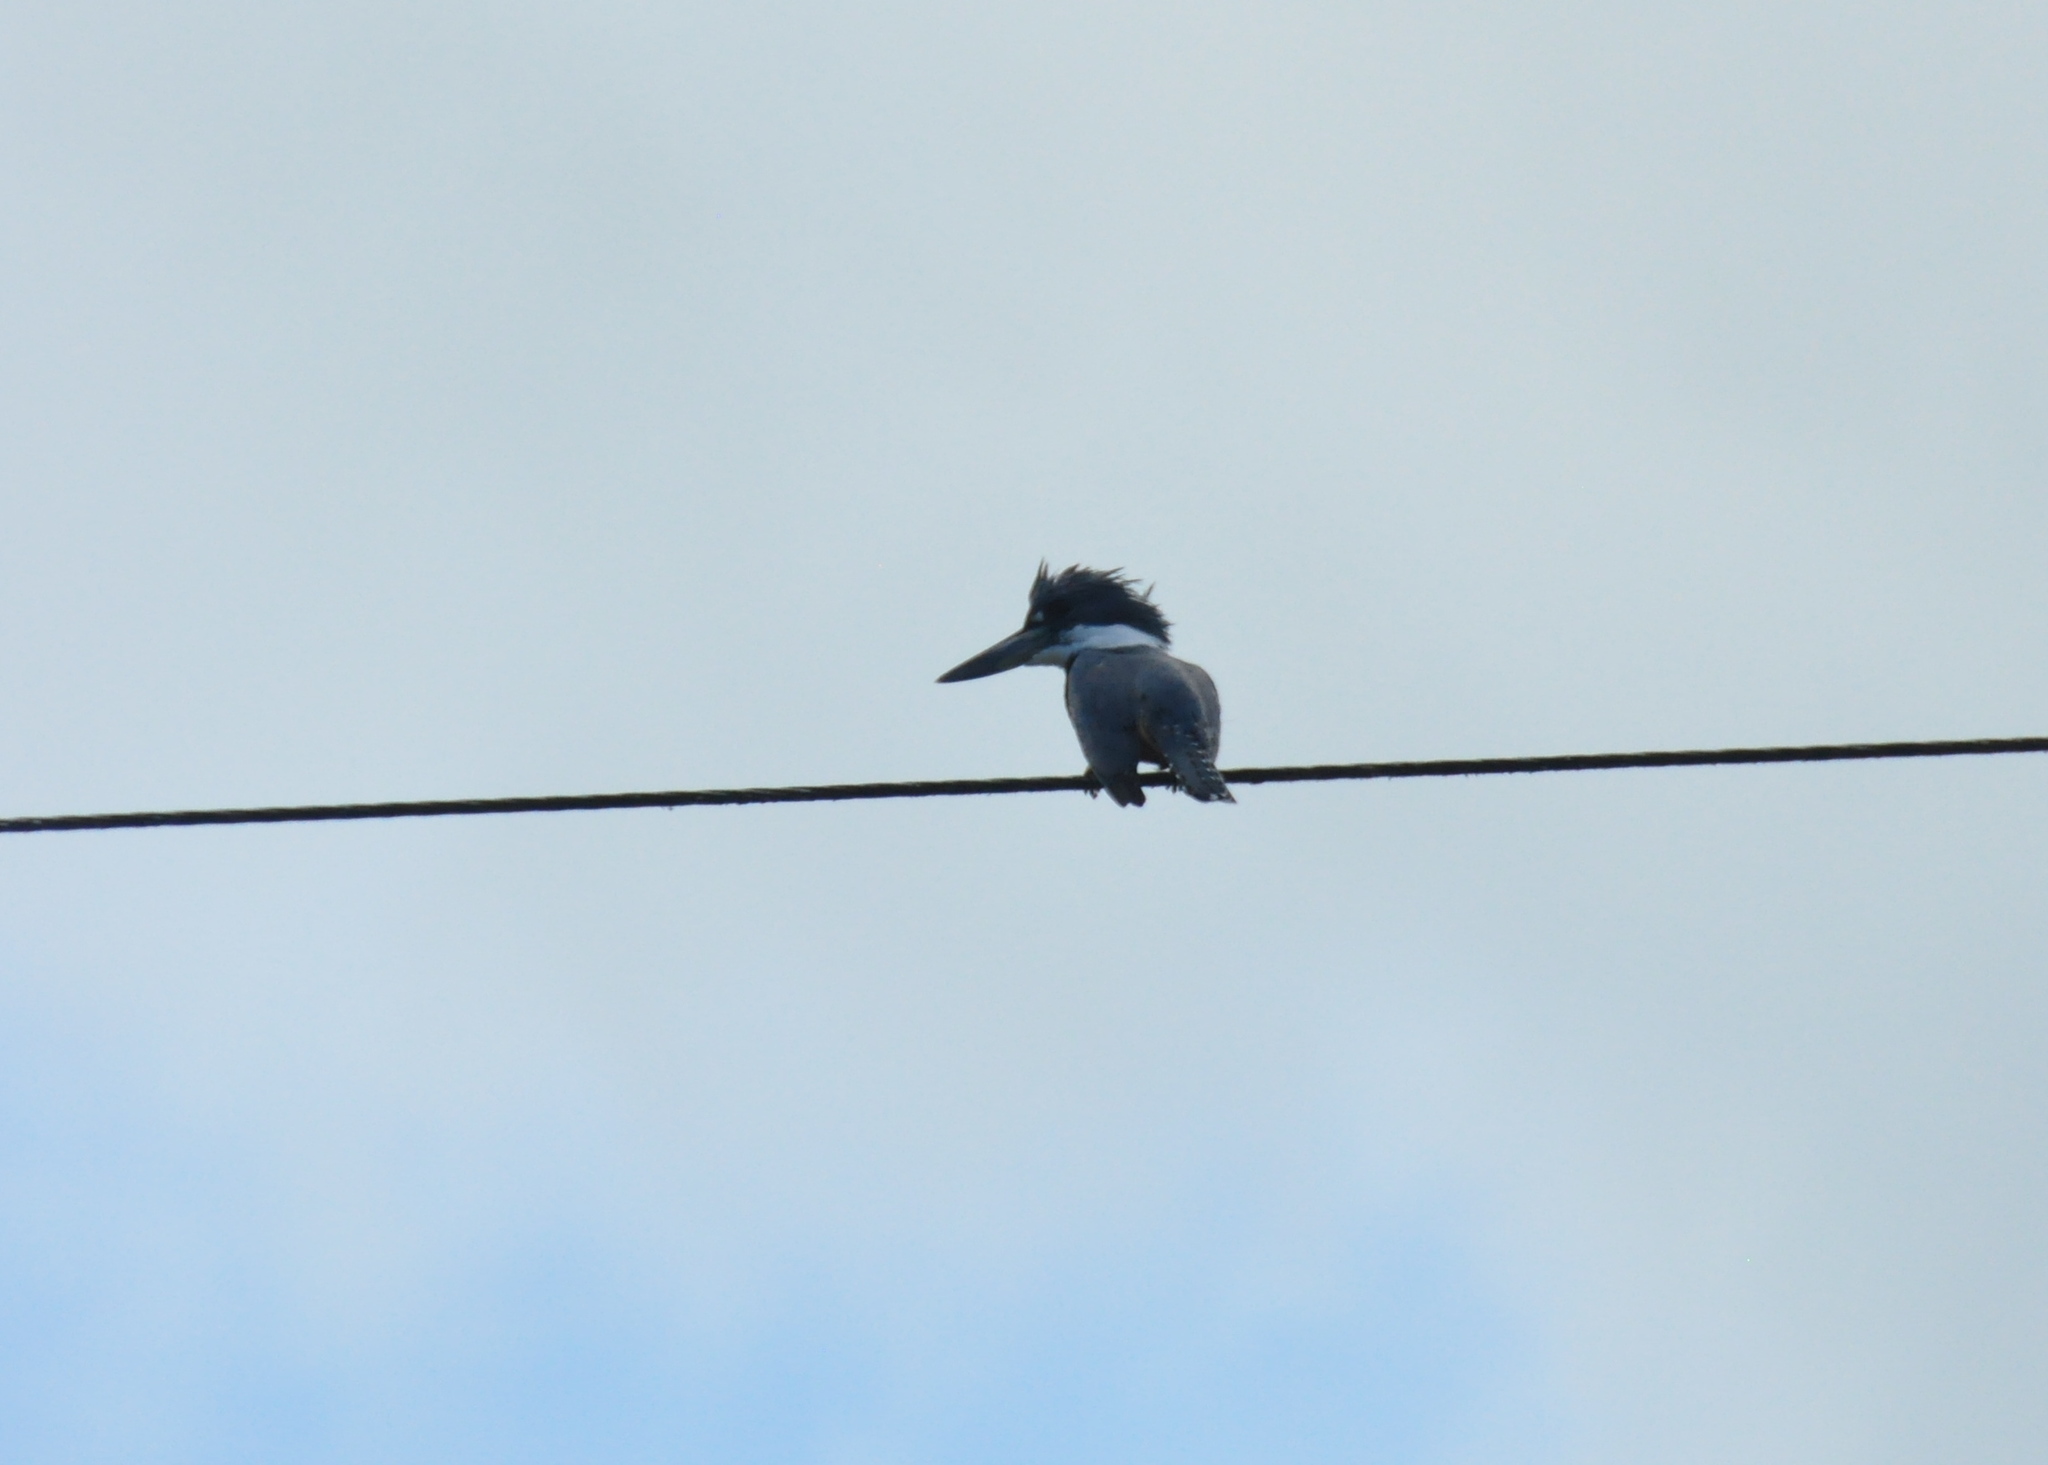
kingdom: Animalia
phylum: Chordata
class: Aves
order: Coraciiformes
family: Alcedinidae
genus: Megaceryle
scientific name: Megaceryle torquata
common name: Ringed kingfisher
